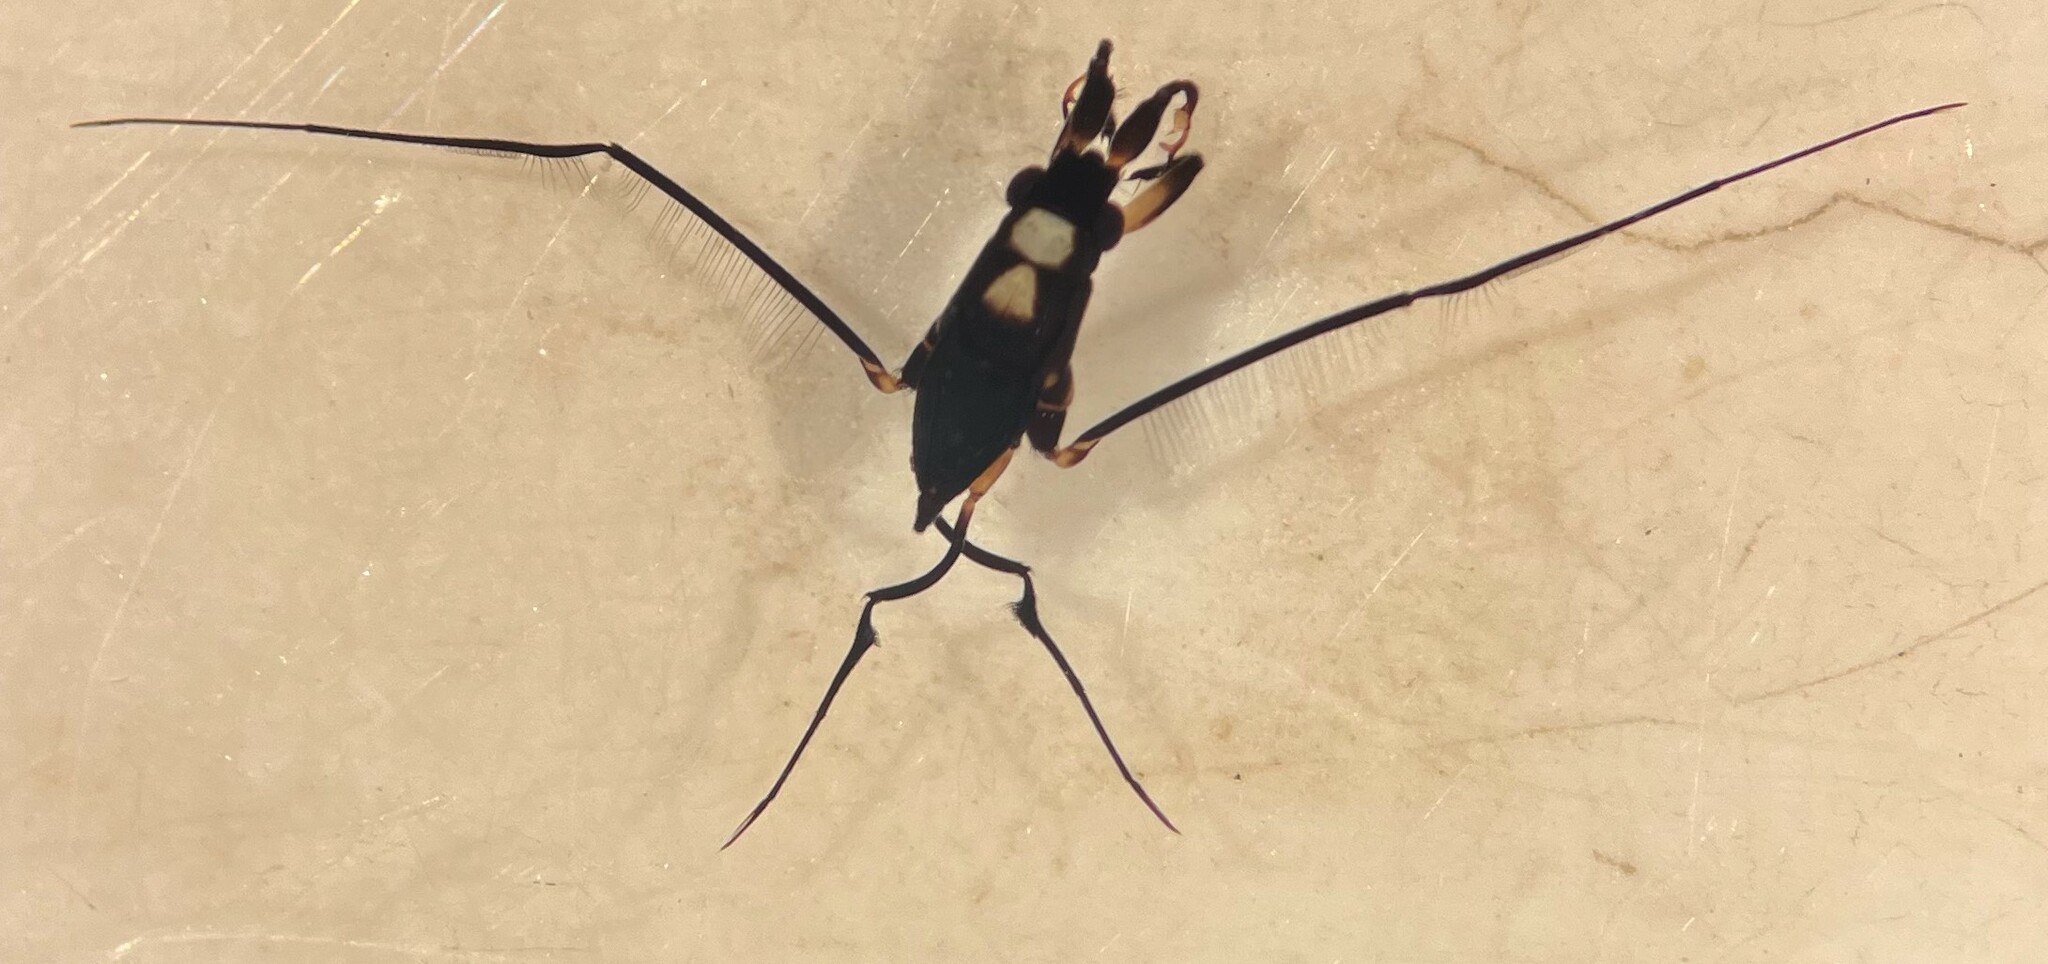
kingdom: Animalia
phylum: Arthropoda
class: Insecta
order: Hemiptera
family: Gerridae
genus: Rheumatobates
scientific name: Rheumatobates hungerfordi
